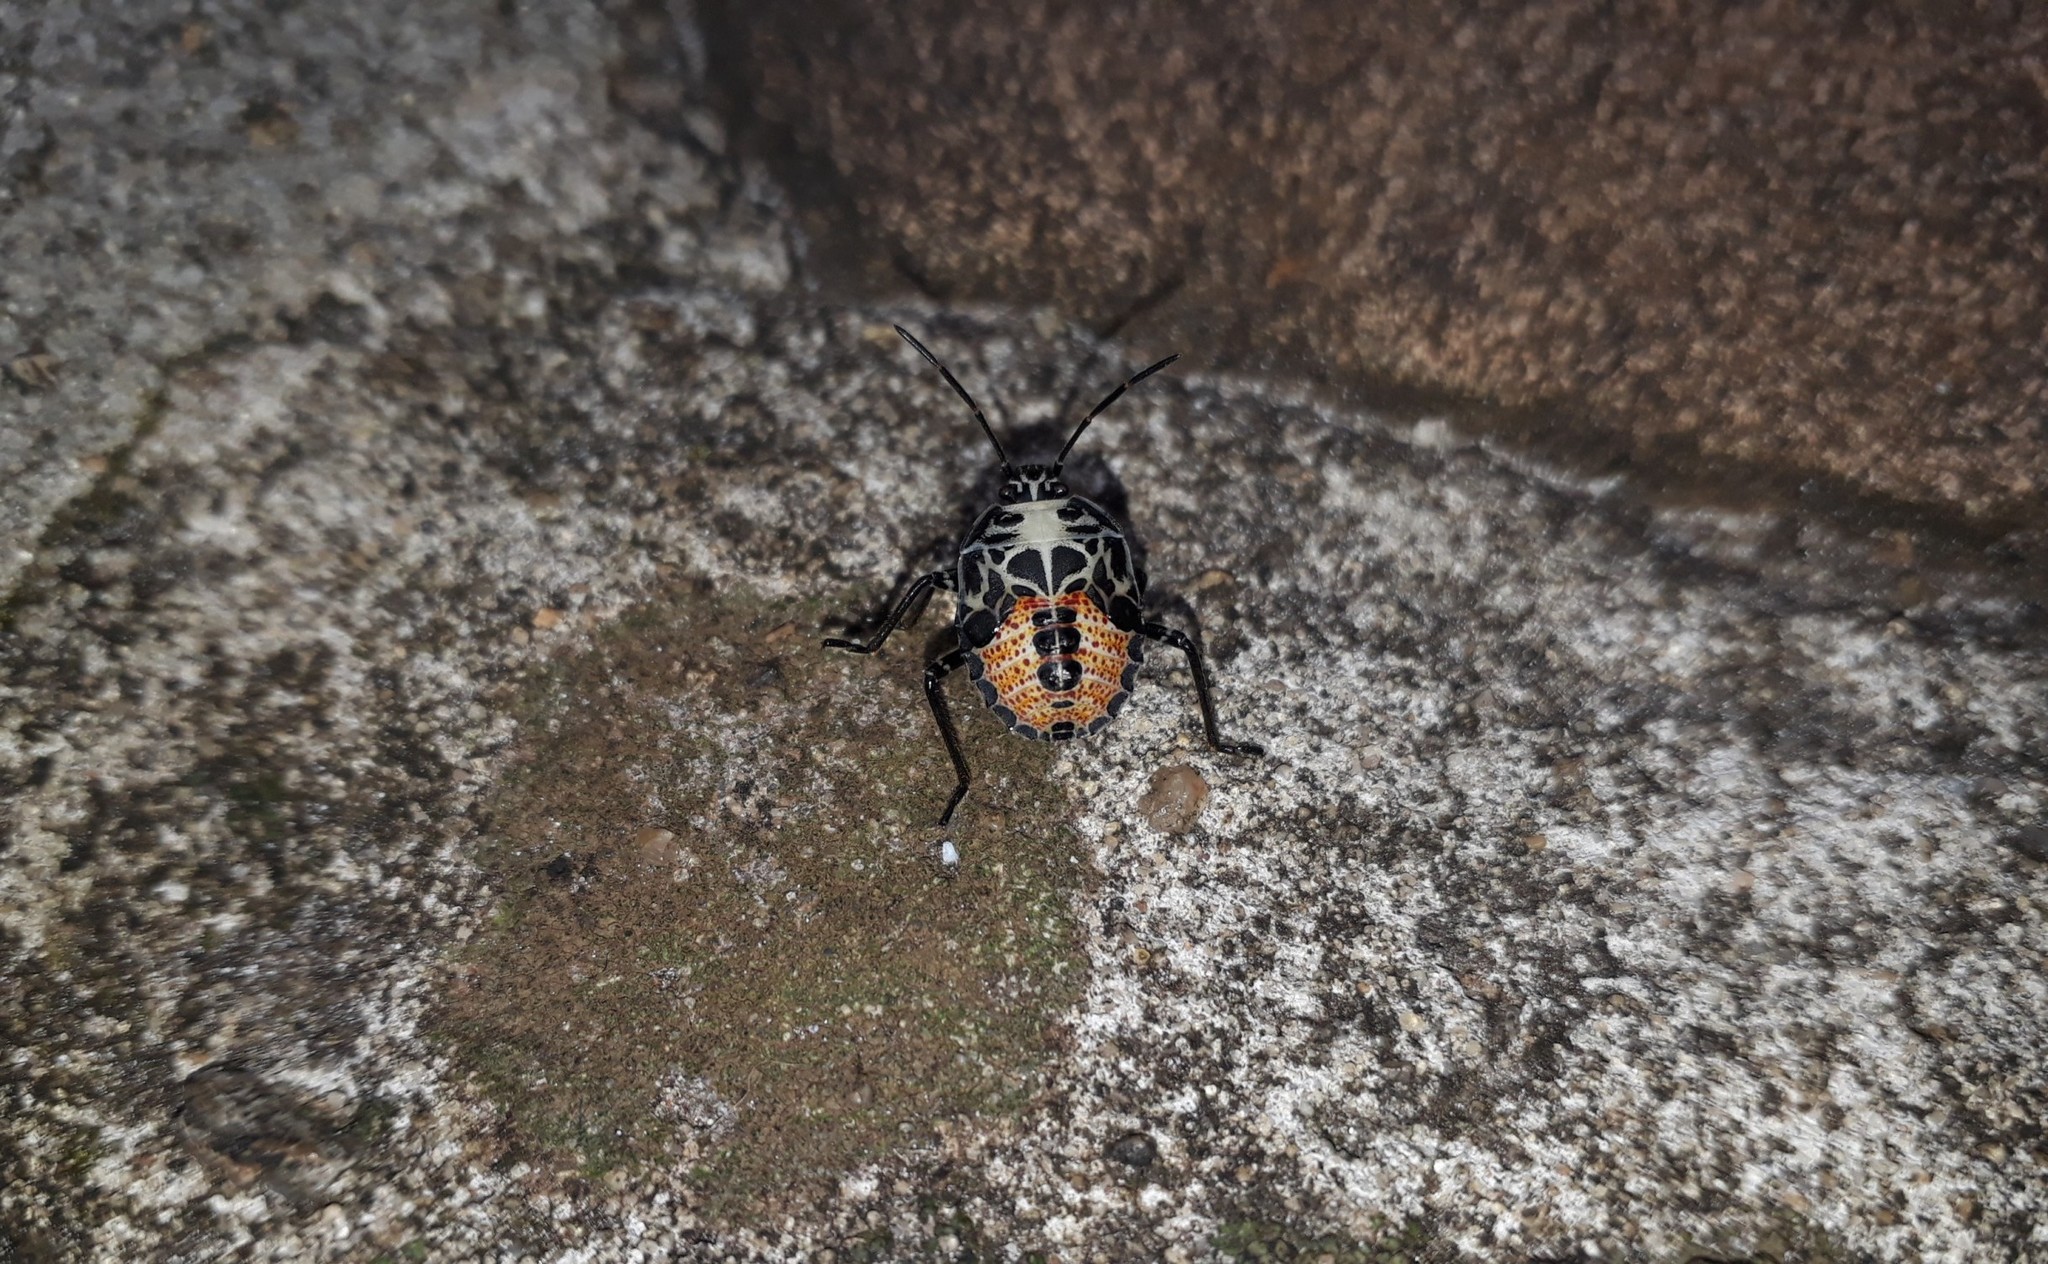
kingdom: Animalia
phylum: Arthropoda
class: Insecta
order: Hemiptera
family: Pentatomidae
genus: Runibia
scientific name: Runibia perspicua
